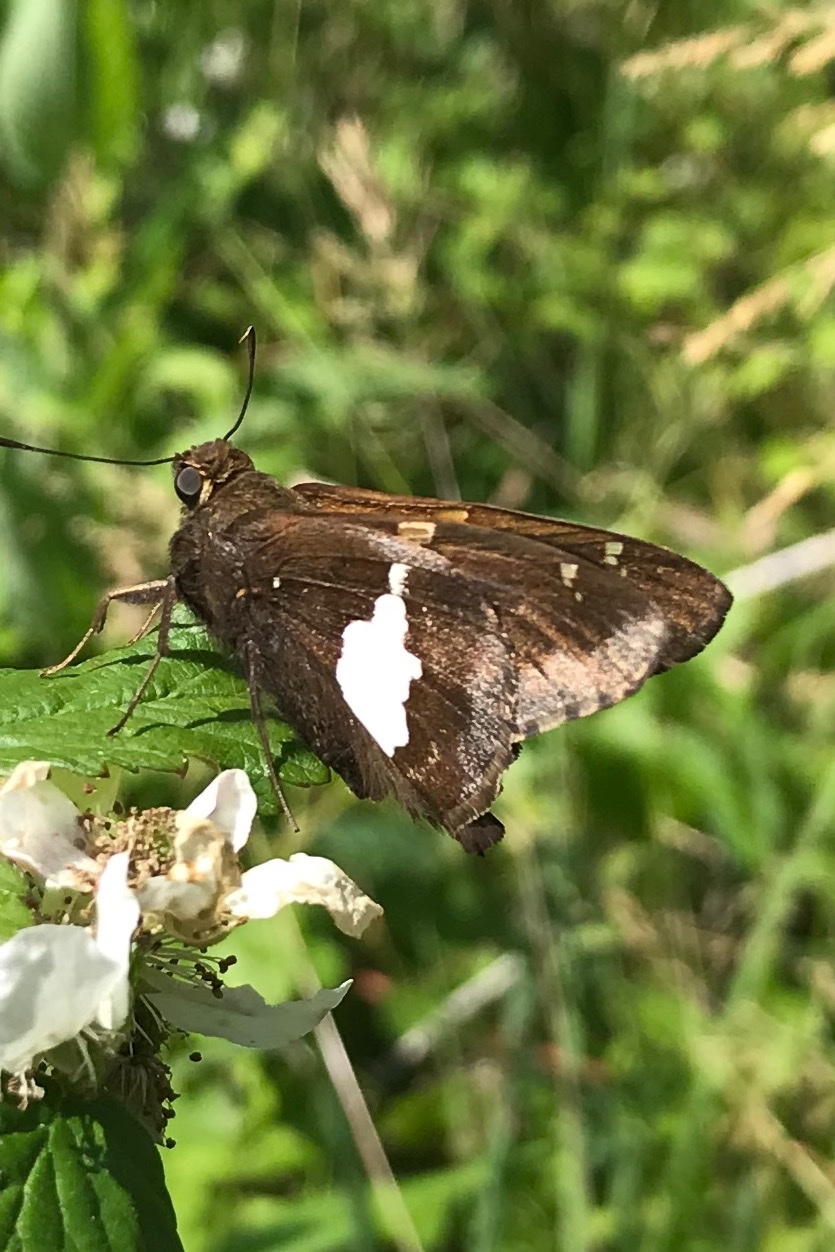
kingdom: Animalia
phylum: Arthropoda
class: Insecta
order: Lepidoptera
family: Hesperiidae
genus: Epargyreus
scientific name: Epargyreus clarus
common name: Silver-spotted skipper
